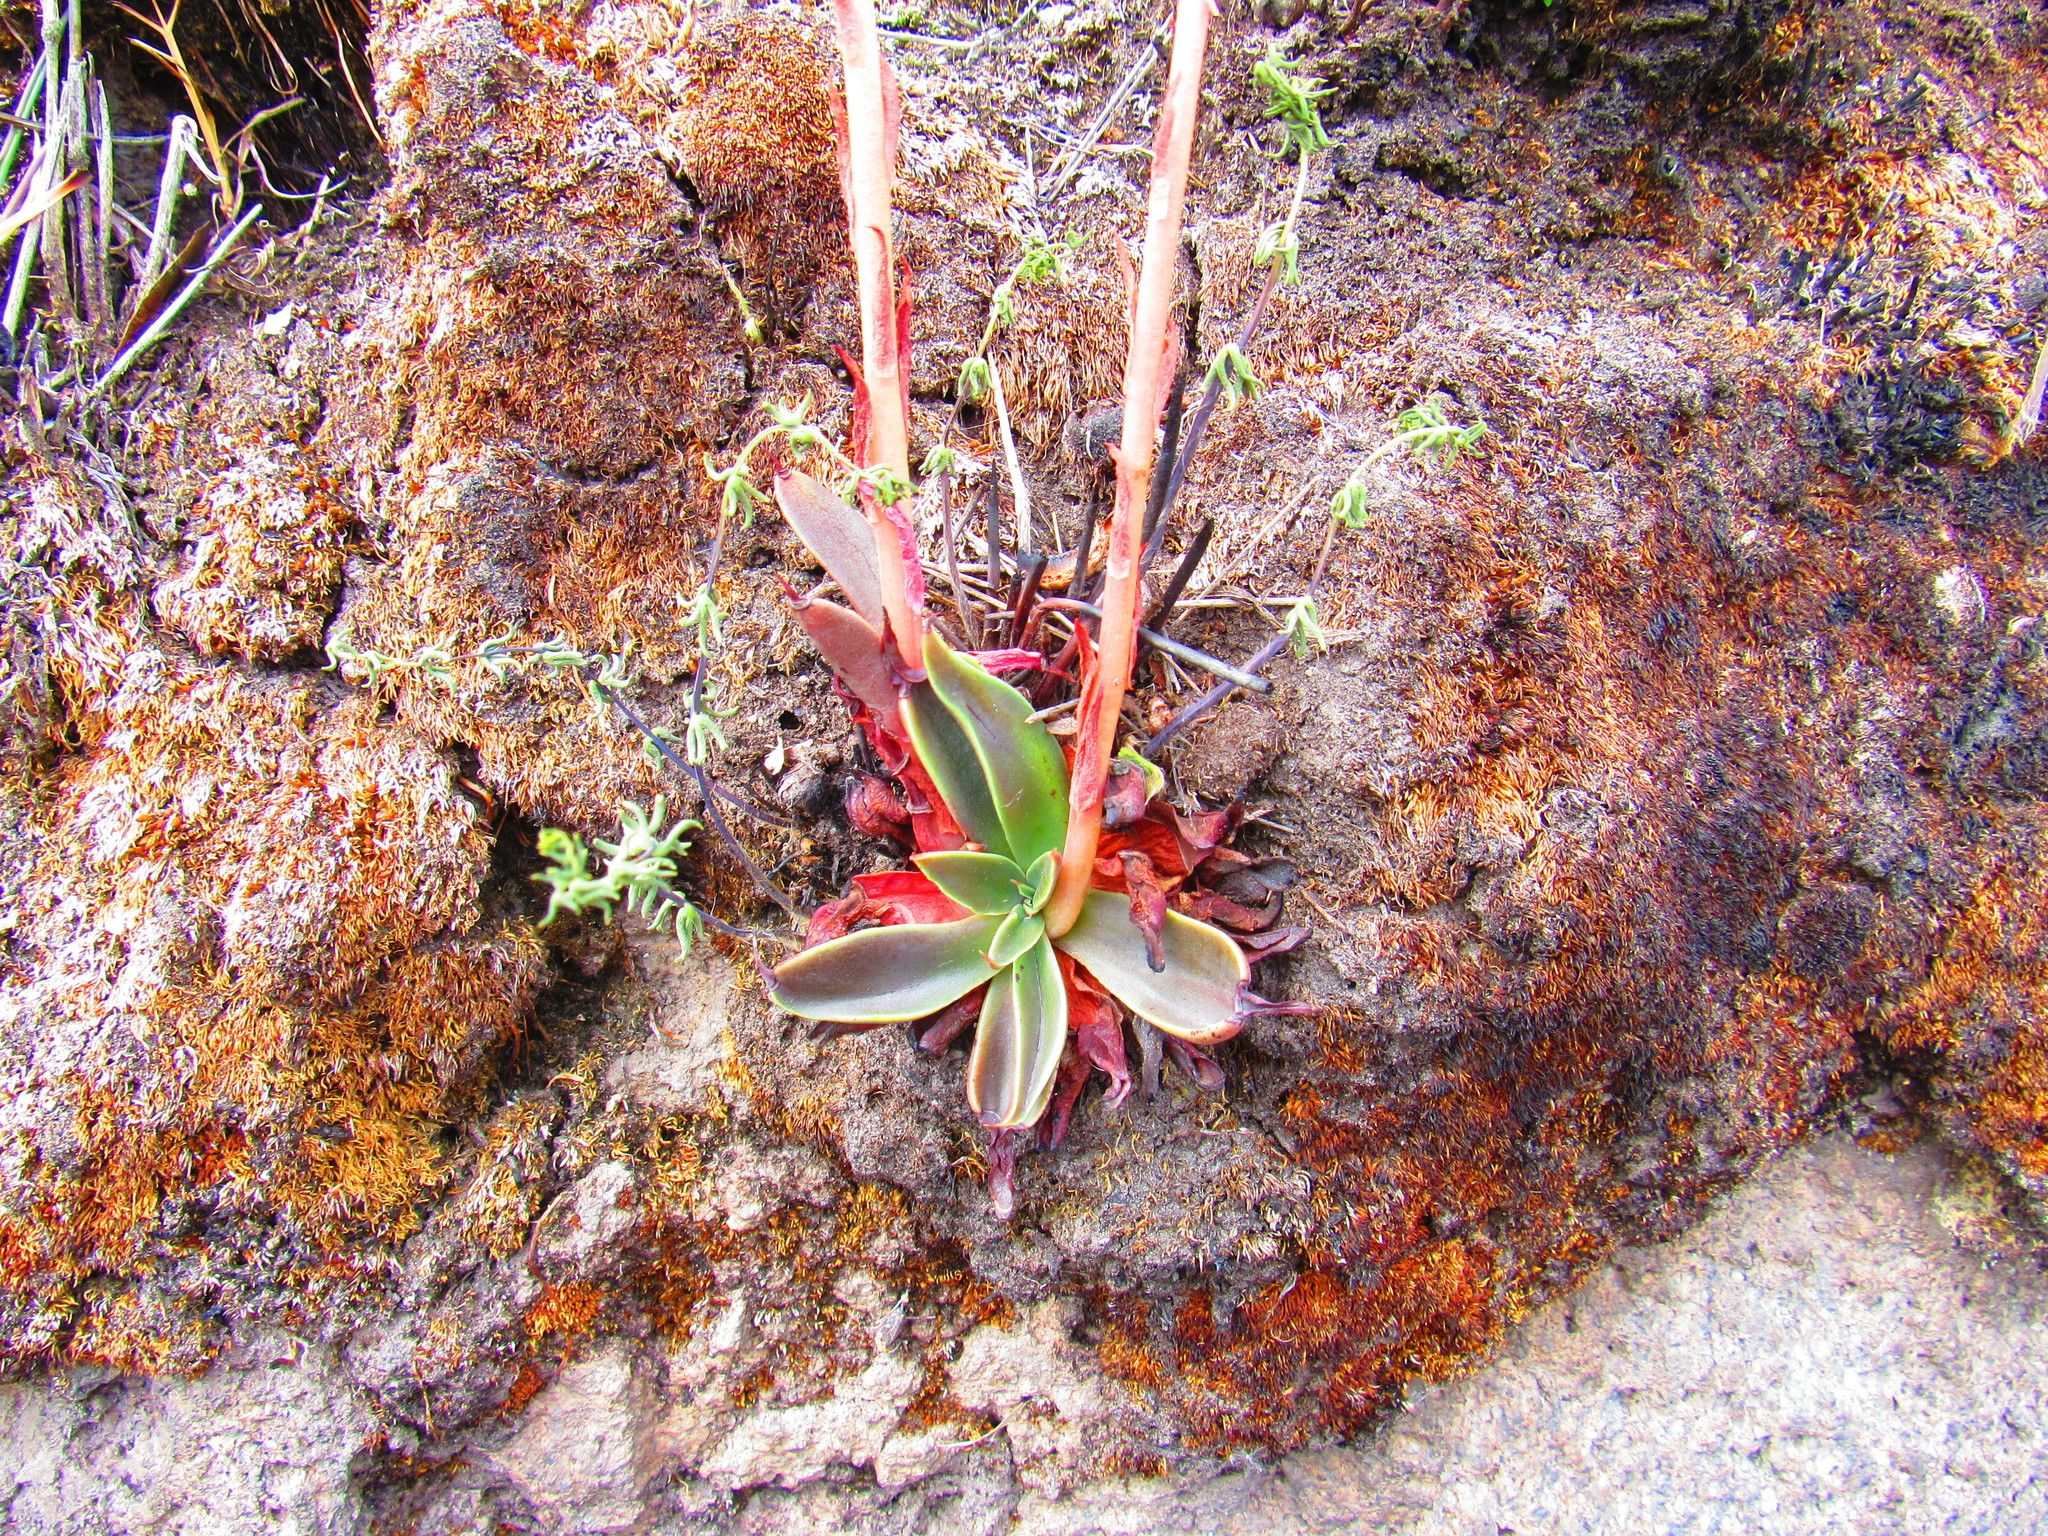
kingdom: Plantae
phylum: Tracheophyta
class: Magnoliopsida
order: Saxifragales
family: Crassulaceae
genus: Echeveria
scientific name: Echeveria mucronata
